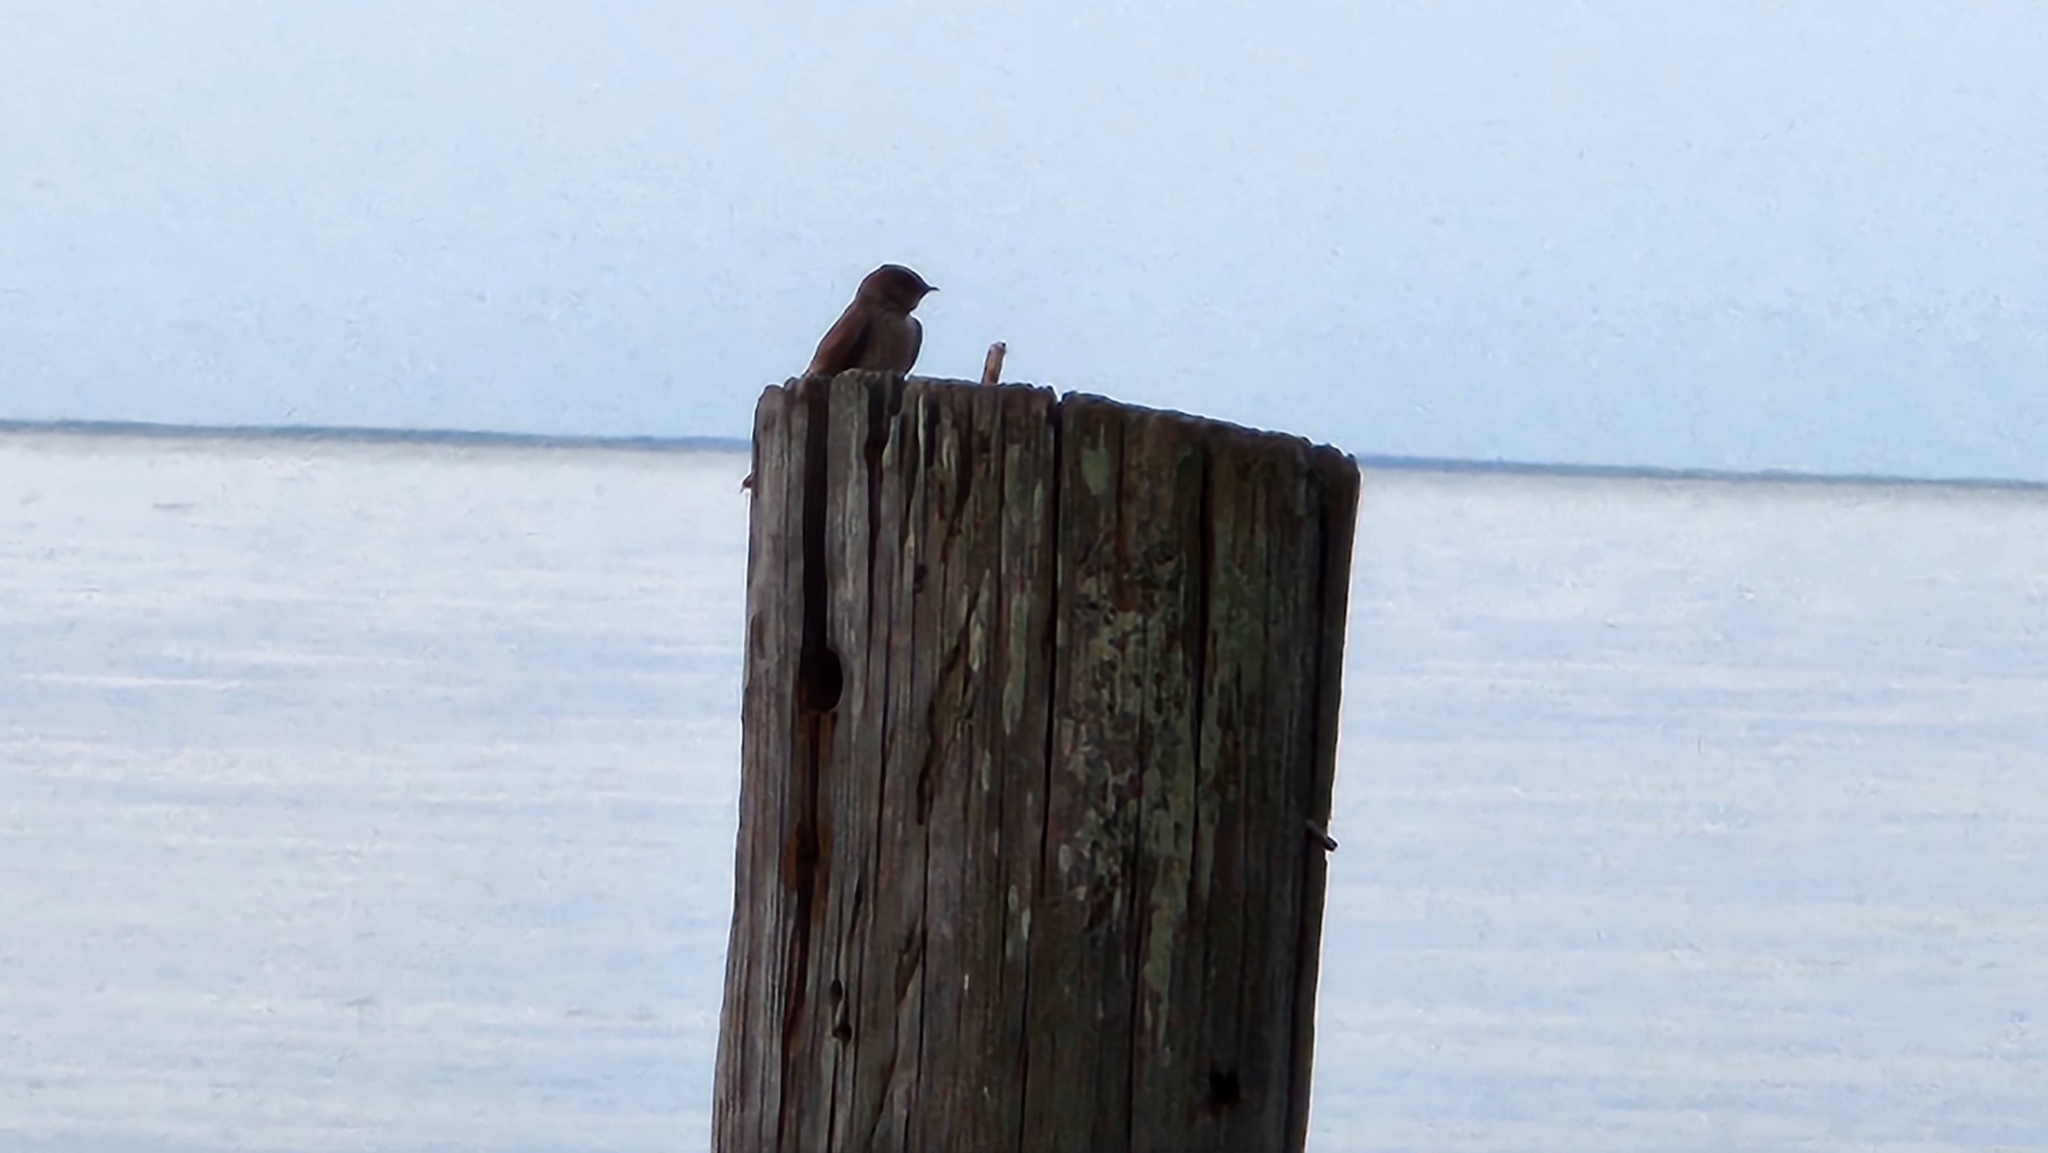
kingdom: Animalia
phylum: Chordata
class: Aves
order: Passeriformes
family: Hirundinidae
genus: Stelgidopteryx
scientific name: Stelgidopteryx serripennis
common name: Northern rough-winged swallow
